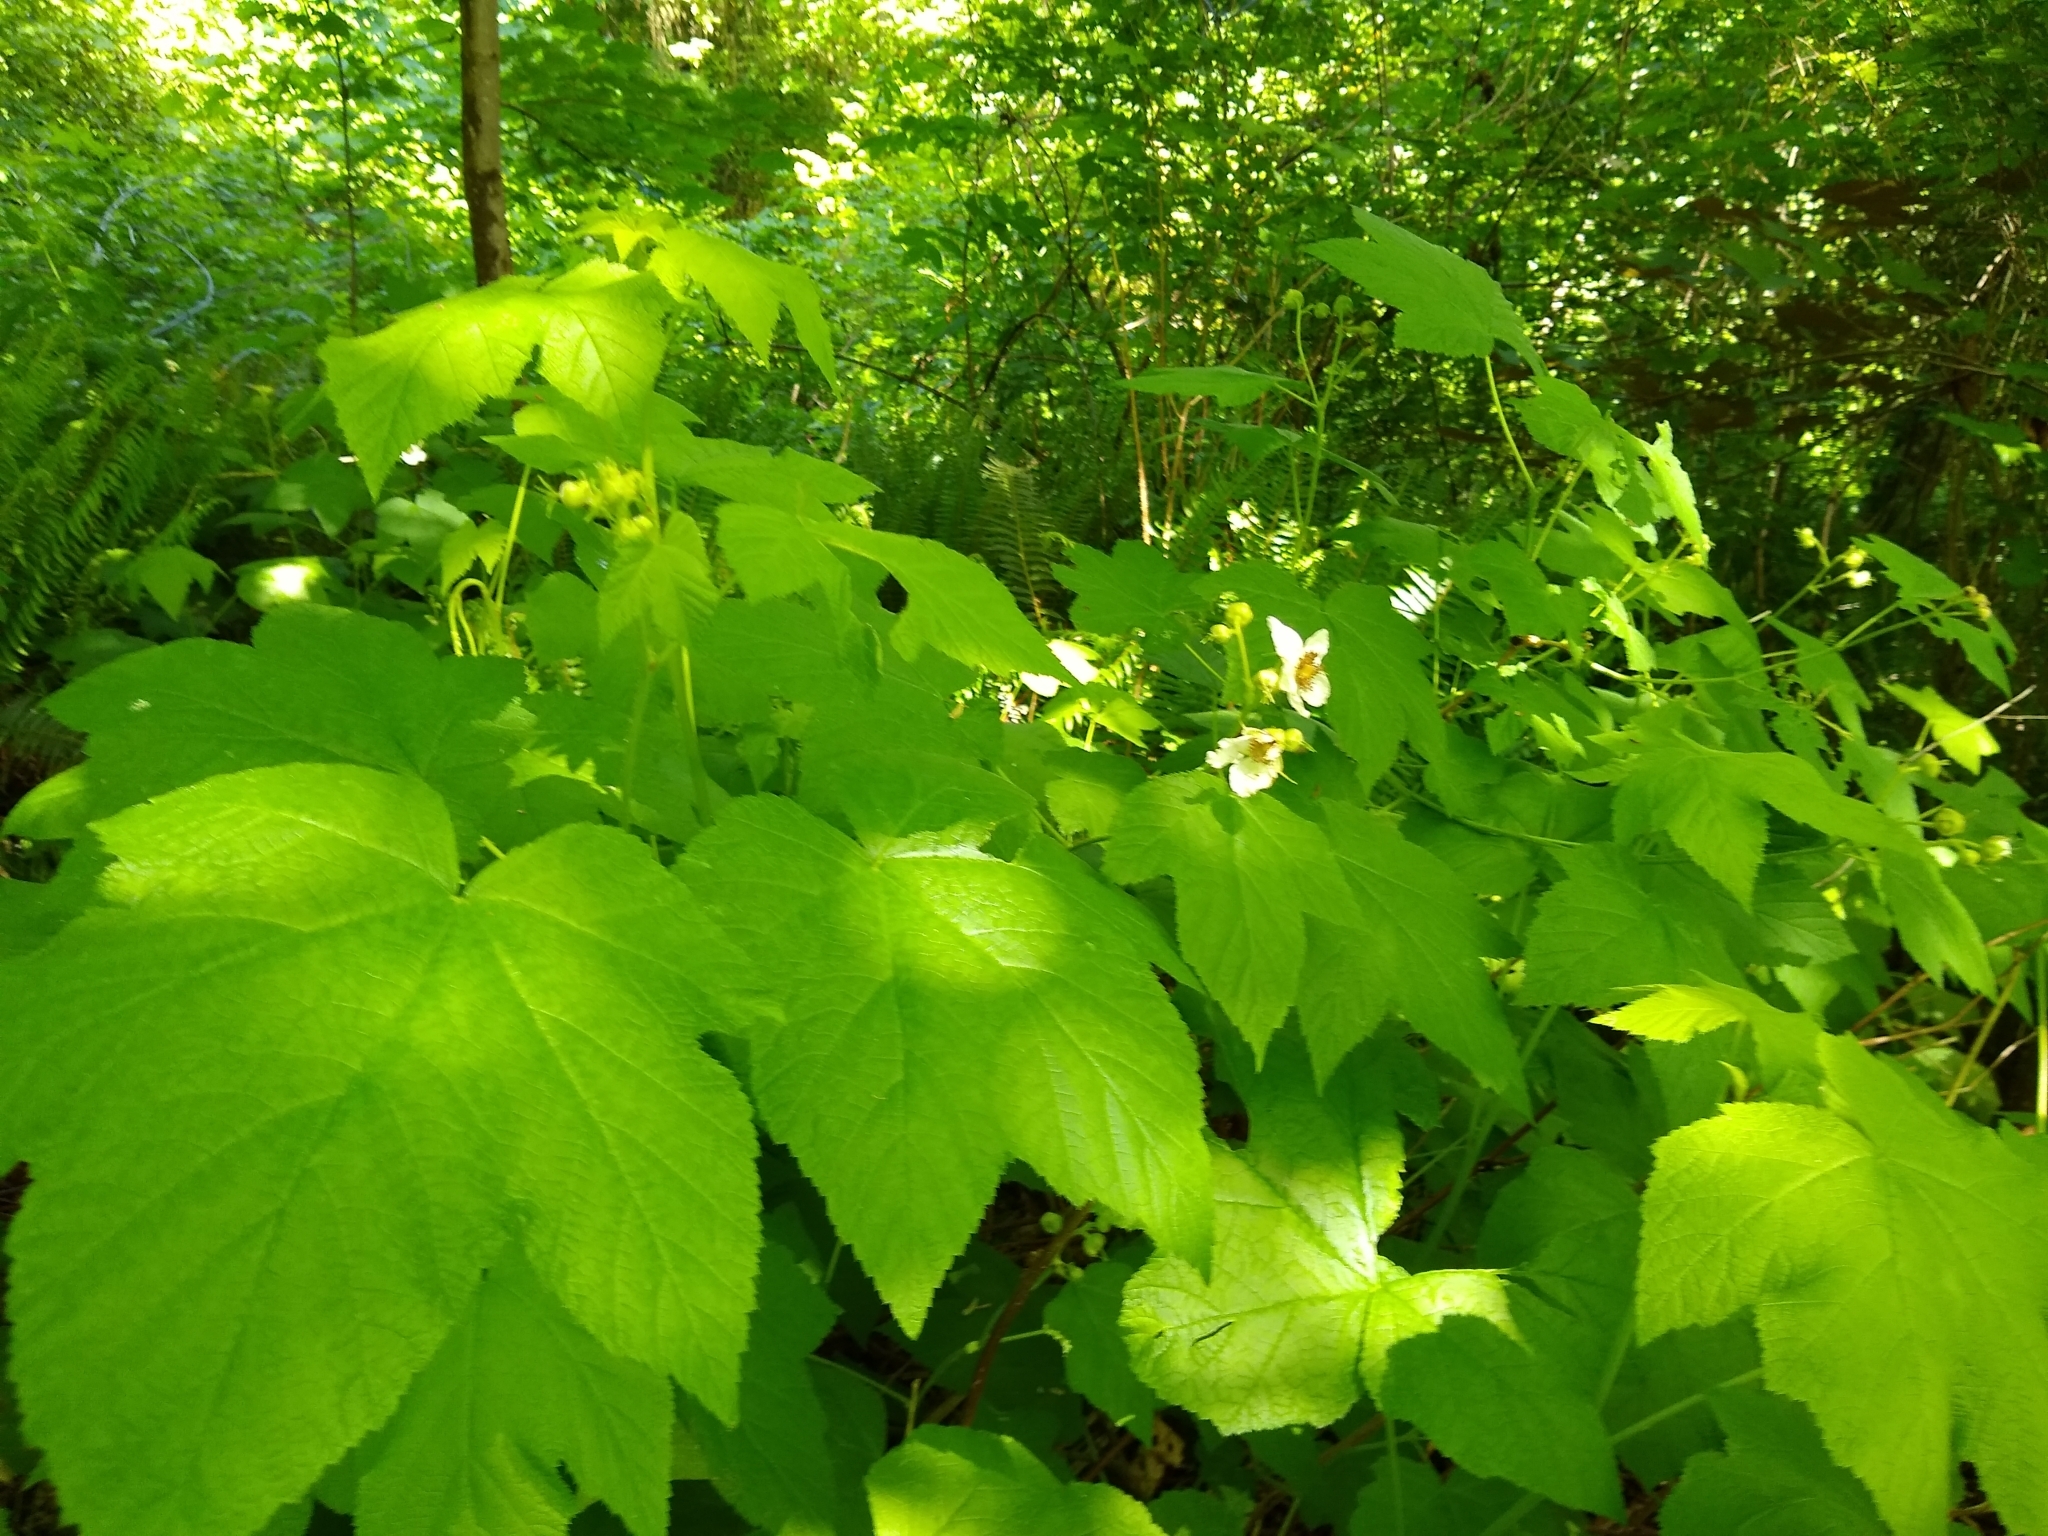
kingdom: Plantae
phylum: Tracheophyta
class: Magnoliopsida
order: Rosales
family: Rosaceae
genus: Rubus
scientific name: Rubus parviflorus
